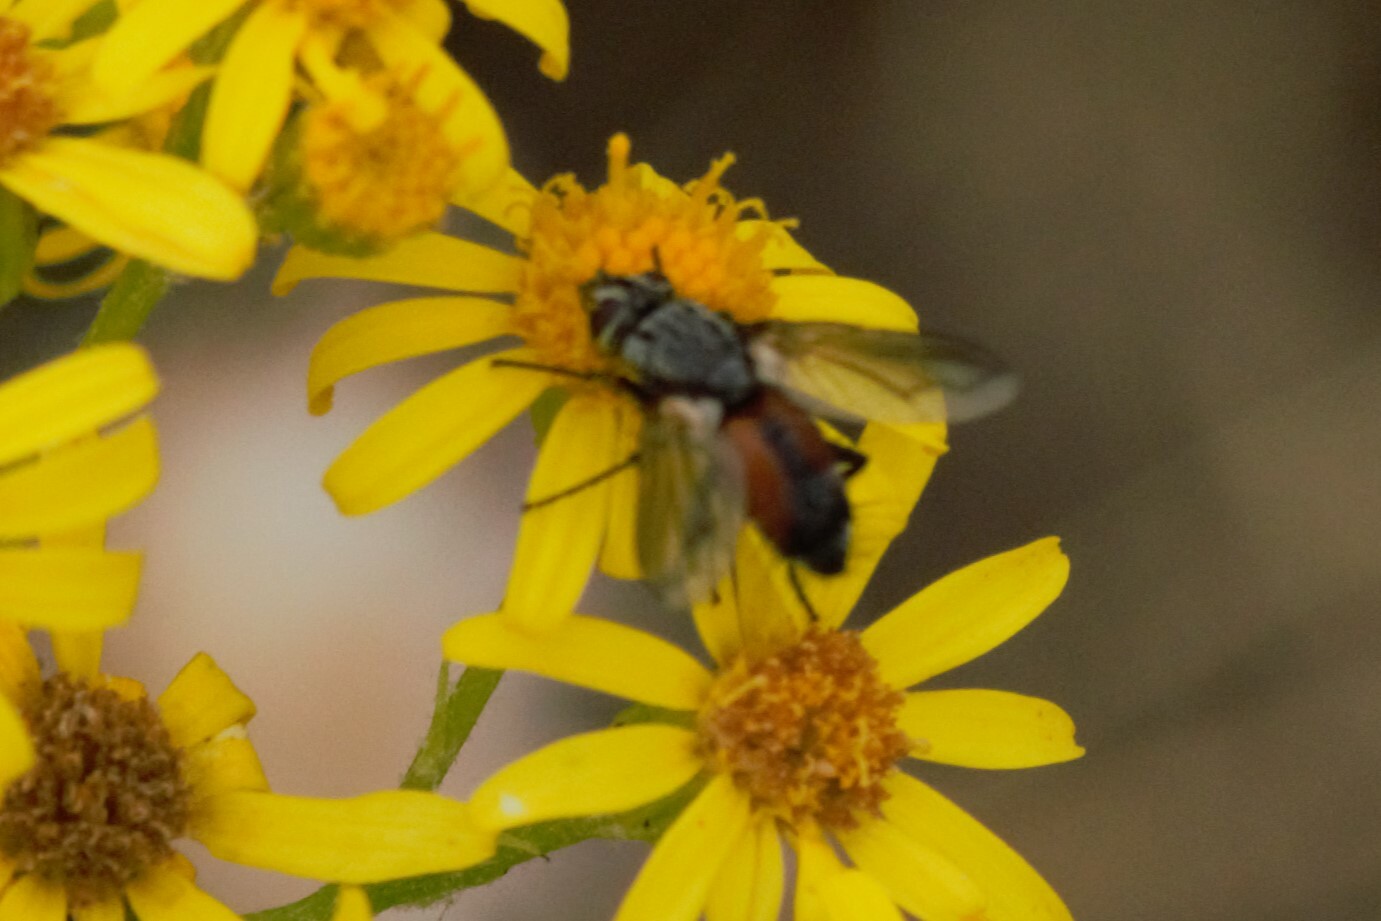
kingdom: Animalia
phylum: Arthropoda
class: Insecta
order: Diptera
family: Tachinidae
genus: Eriothrix
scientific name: Eriothrix rufomaculatus
